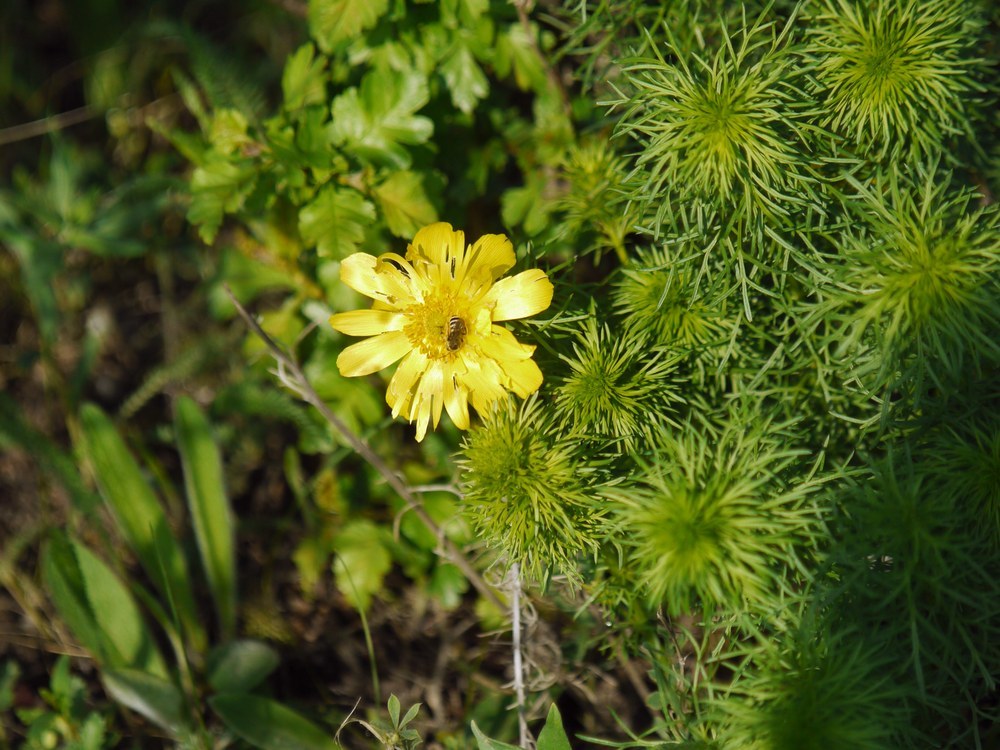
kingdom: Plantae
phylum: Tracheophyta
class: Magnoliopsida
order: Ranunculales
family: Ranunculaceae
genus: Adonis
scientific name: Adonis vernalis
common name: Yellow pheasants-eye
